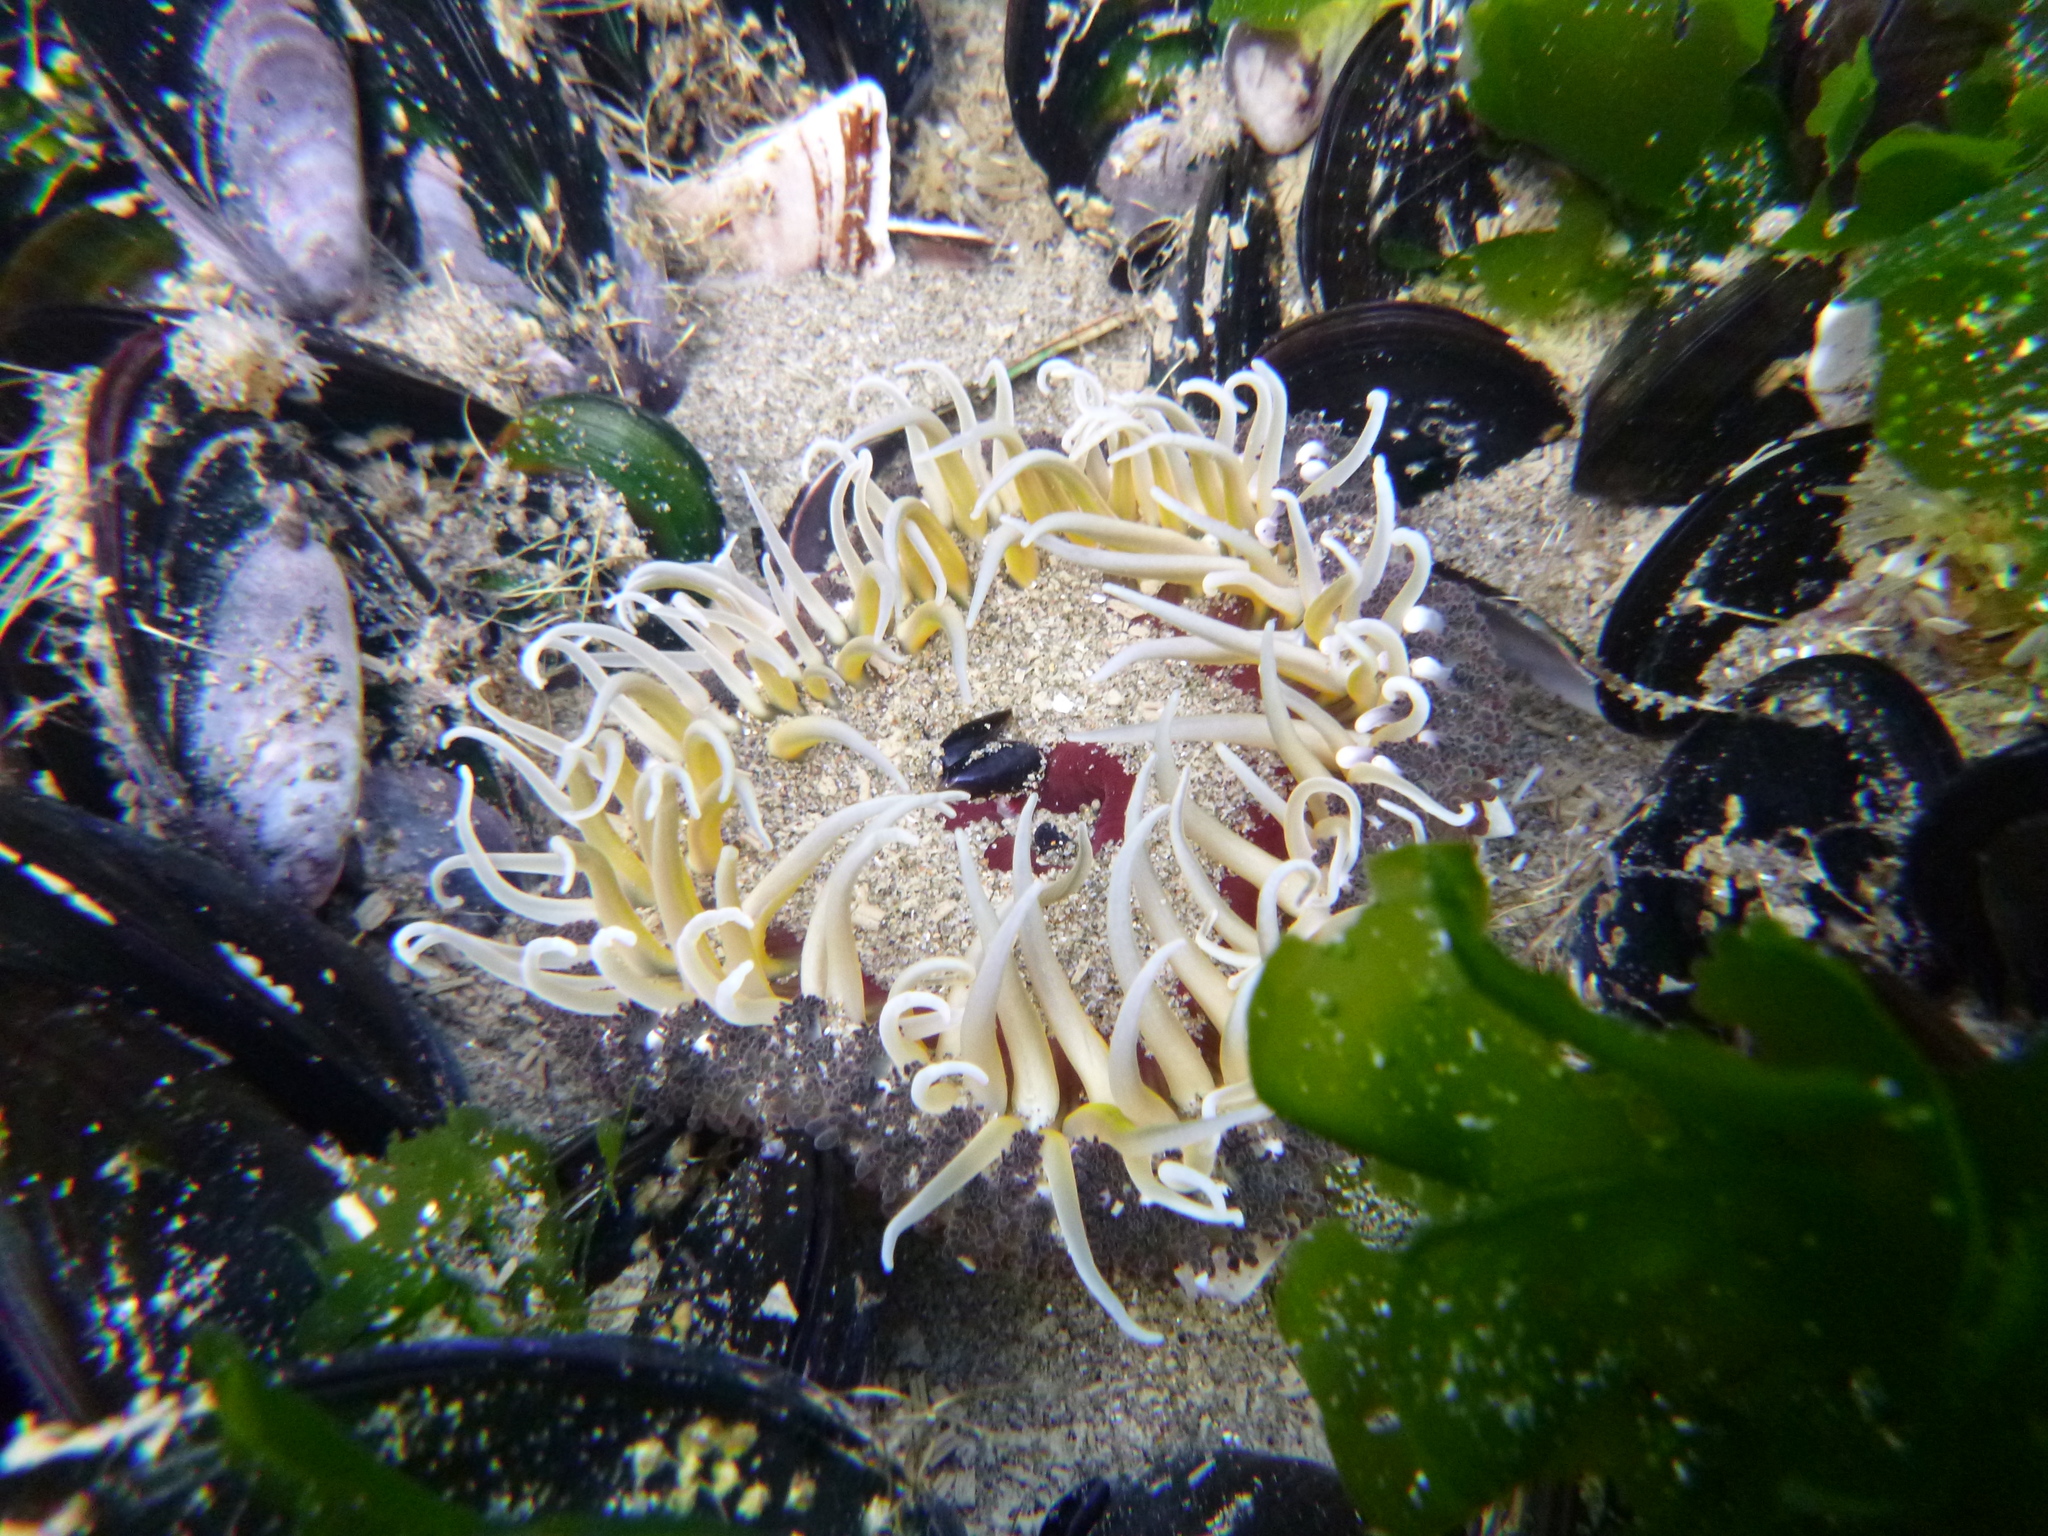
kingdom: Animalia
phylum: Cnidaria
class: Anthozoa
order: Actiniaria
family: Actiniidae
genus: Oulactis
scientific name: Oulactis magna
